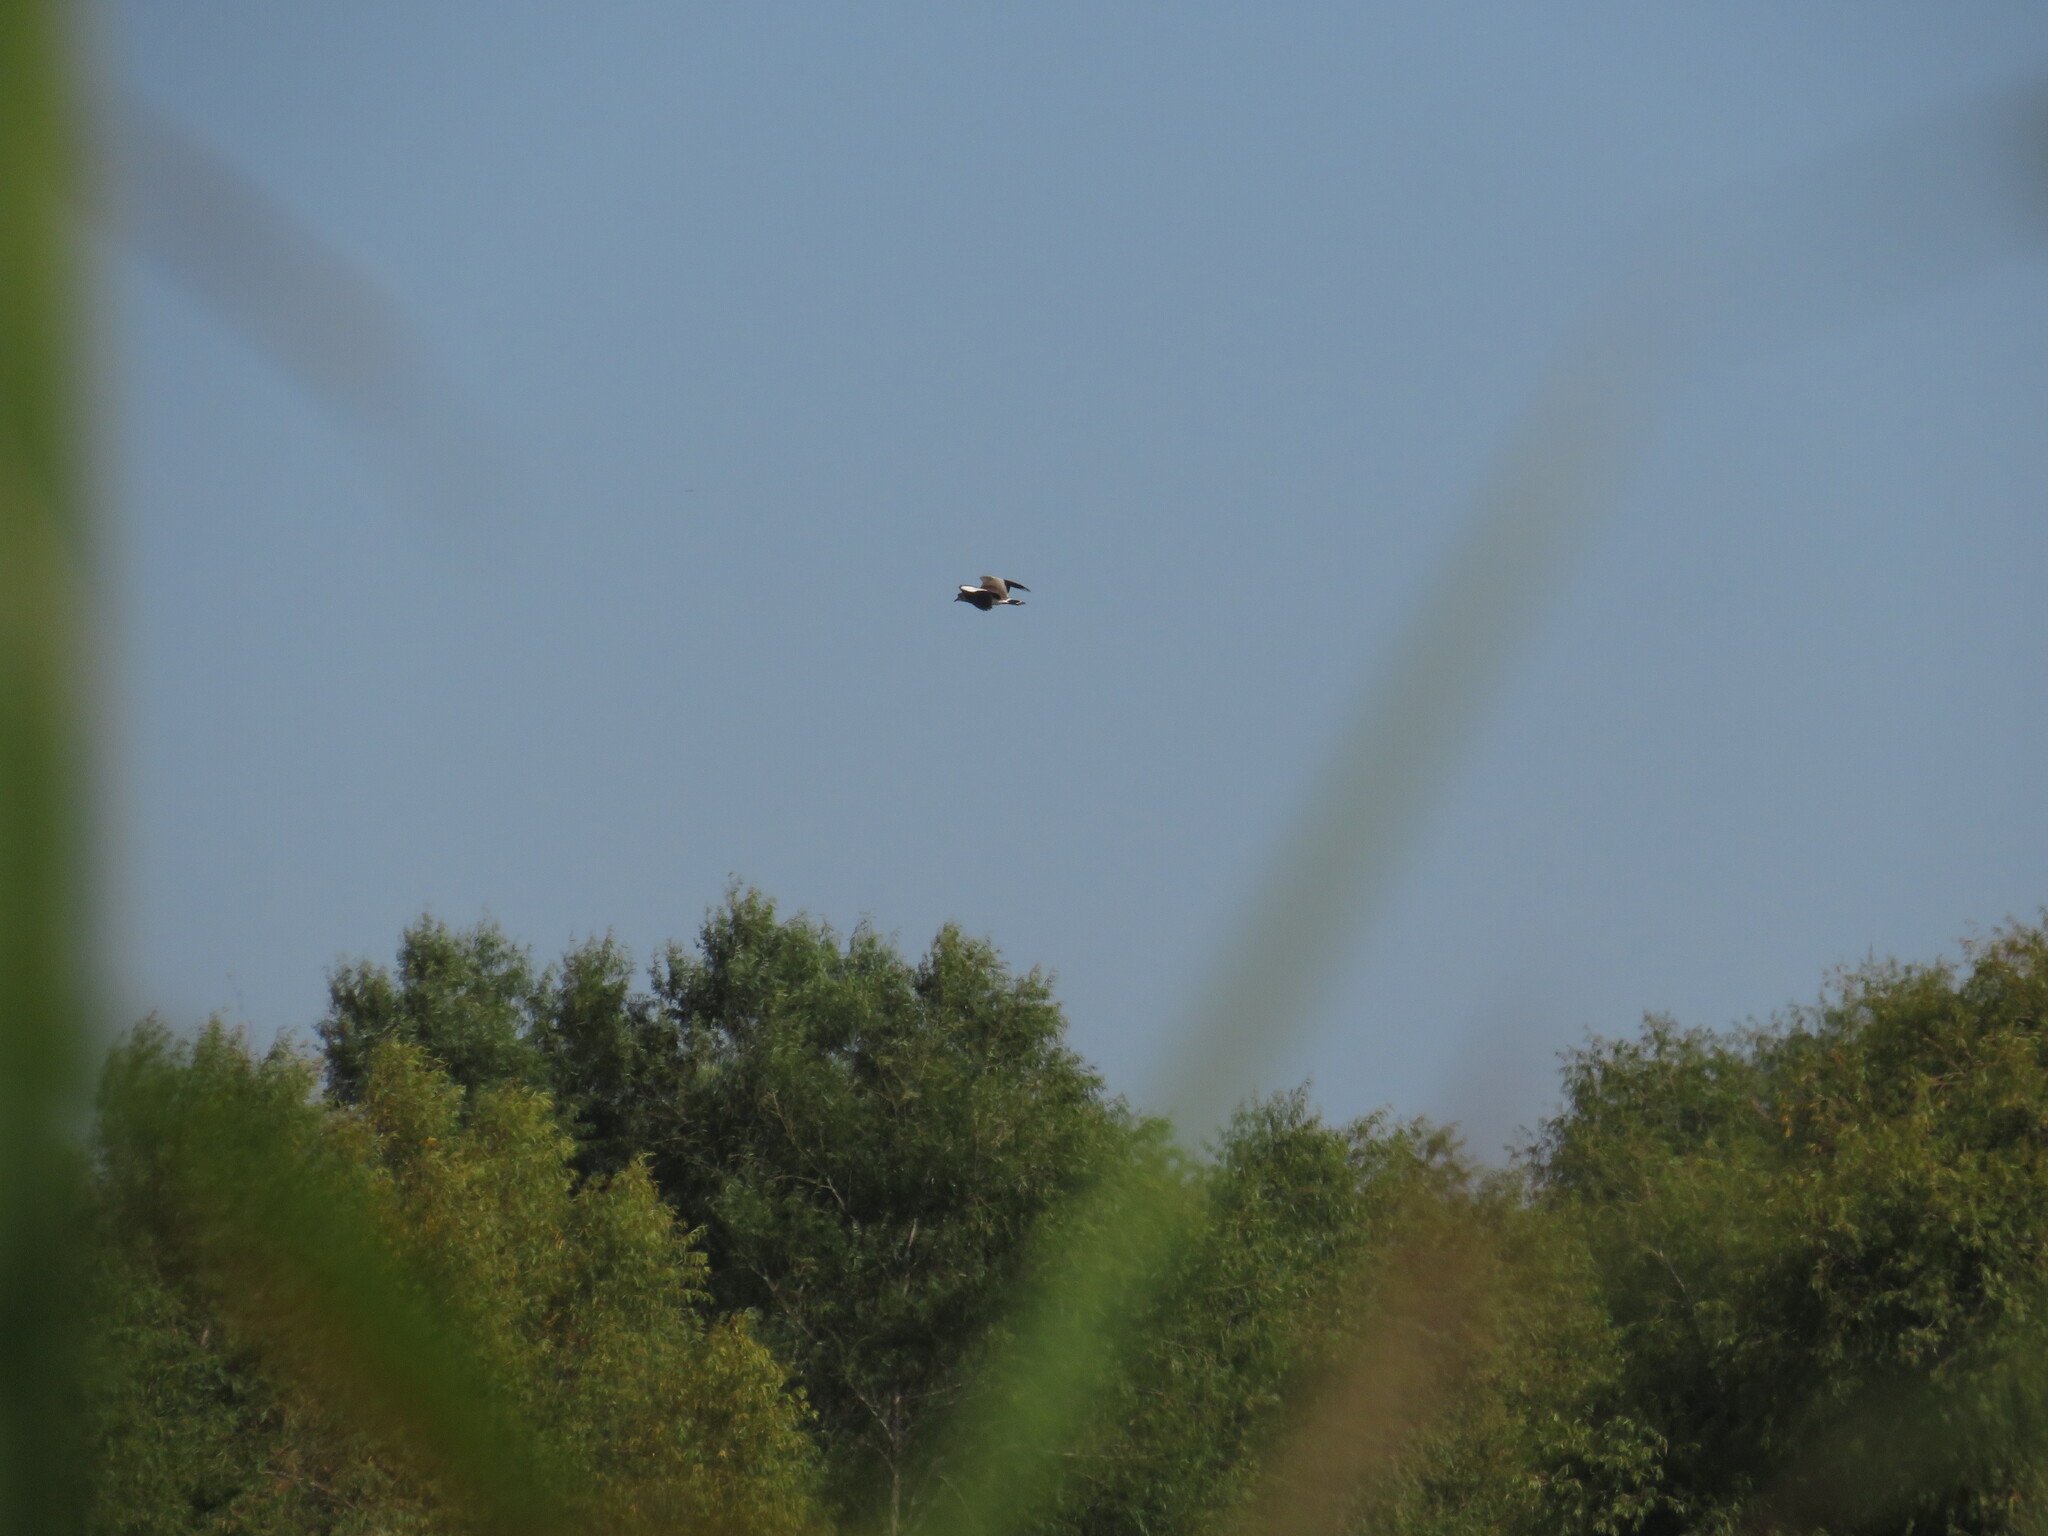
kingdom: Animalia
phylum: Chordata
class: Aves
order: Charadriiformes
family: Charadriidae
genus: Vanellus
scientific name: Vanellus chilensis
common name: Southern lapwing
